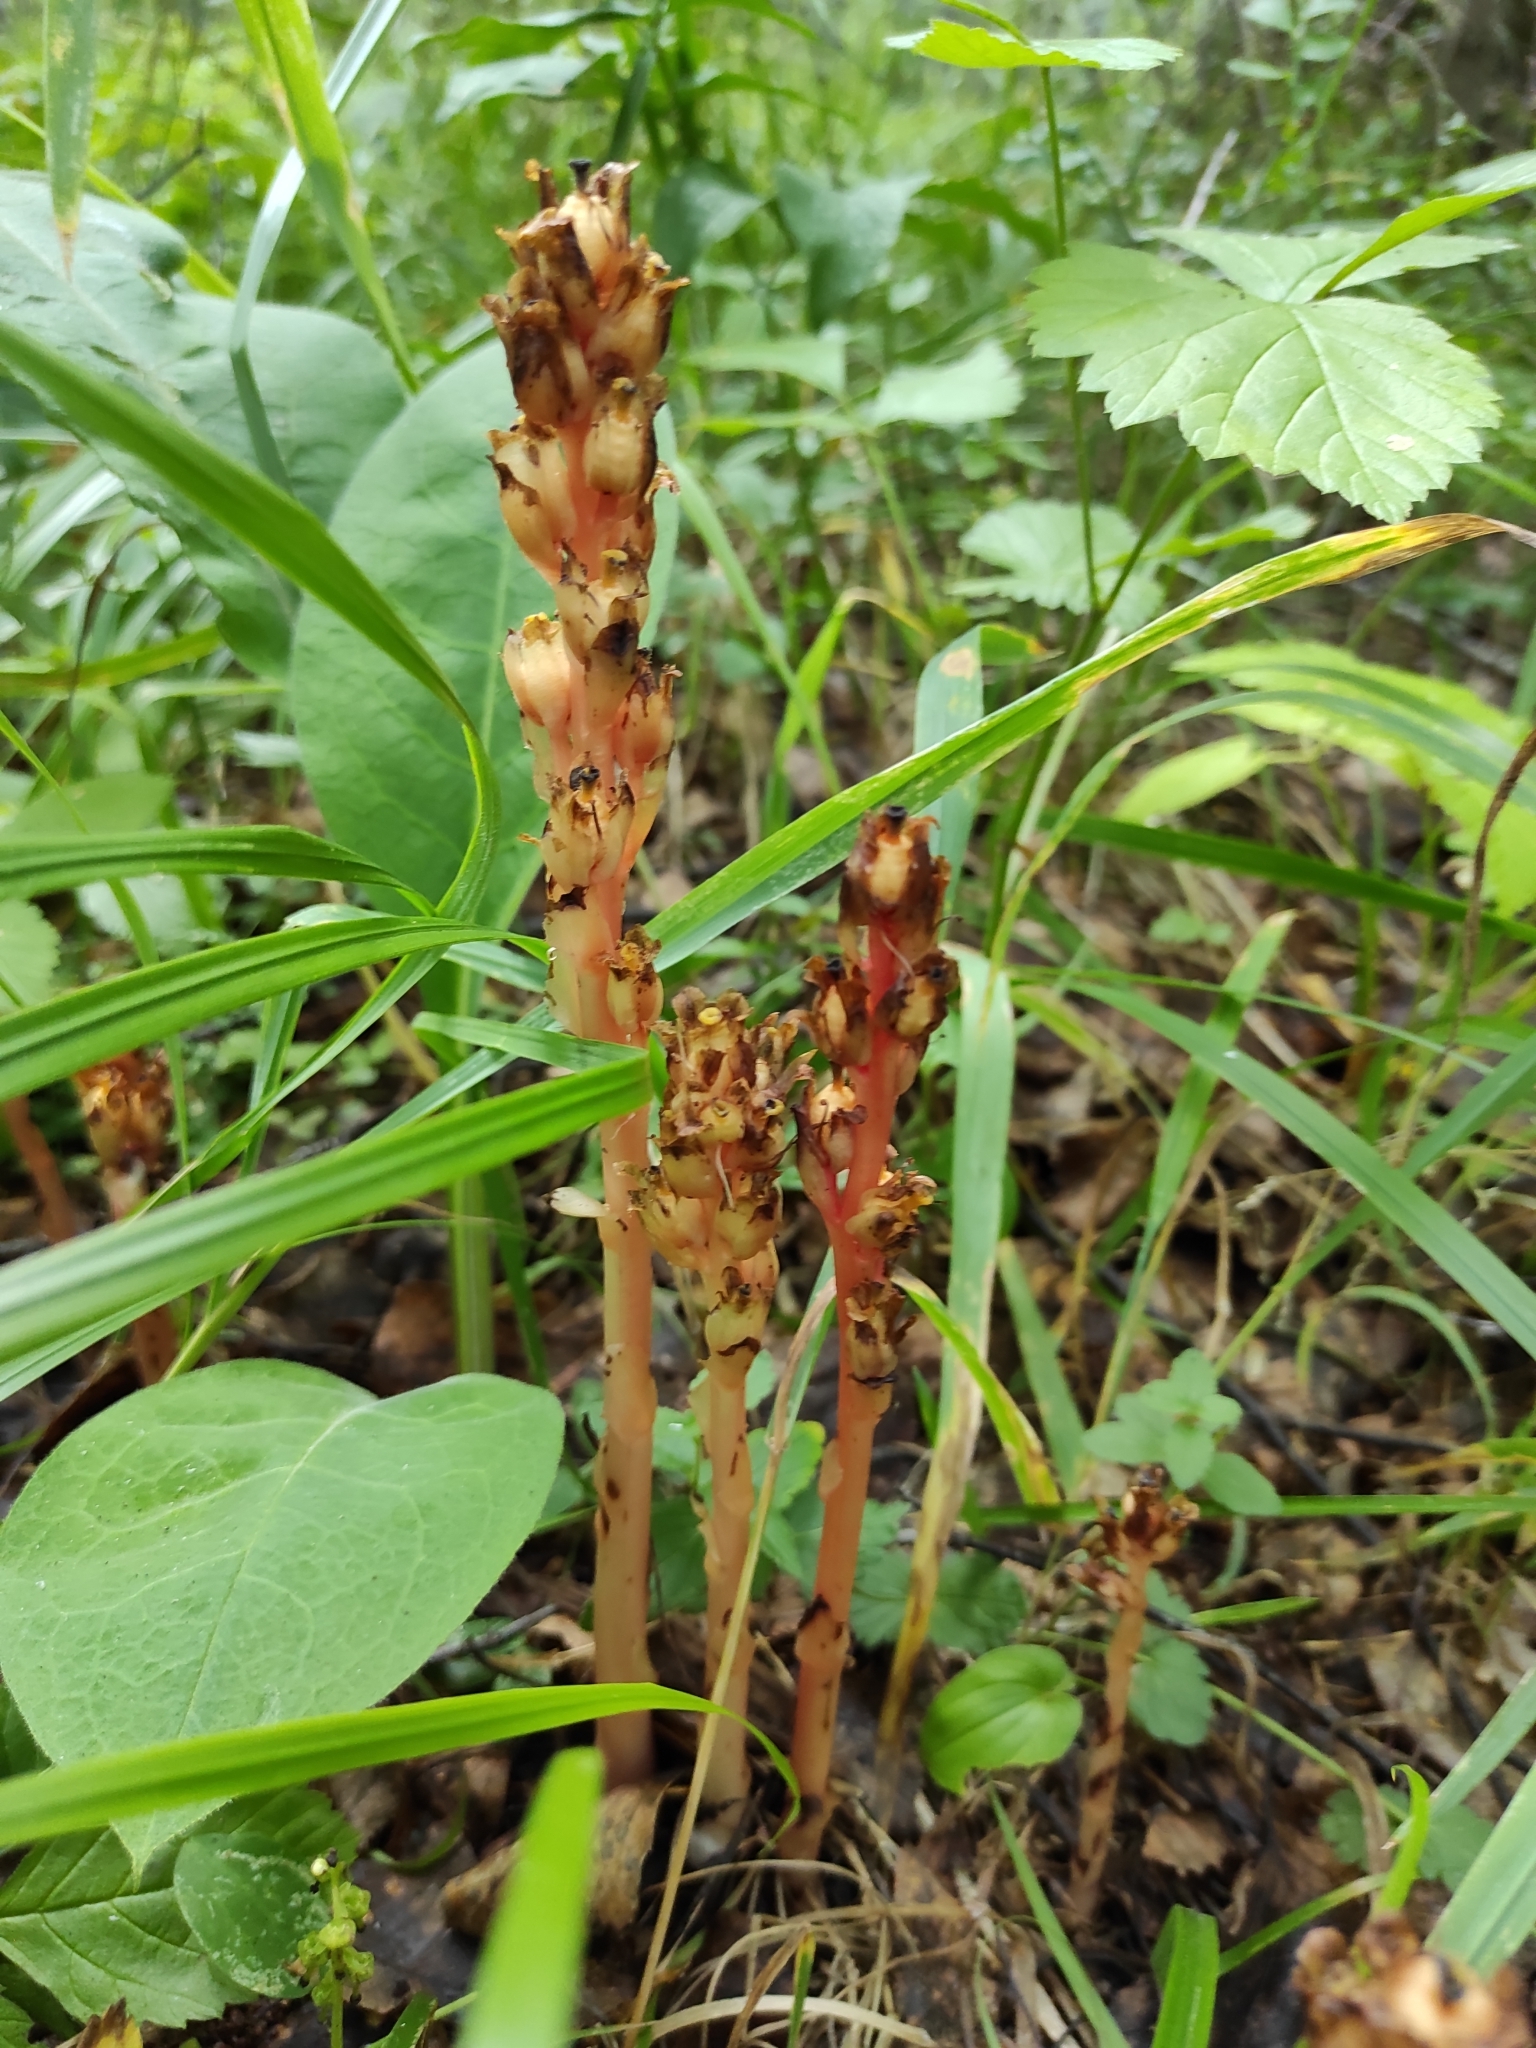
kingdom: Plantae
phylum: Tracheophyta
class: Magnoliopsida
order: Ericales
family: Ericaceae
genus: Hypopitys
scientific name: Hypopitys monotropa
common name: Yellow bird's-nest
